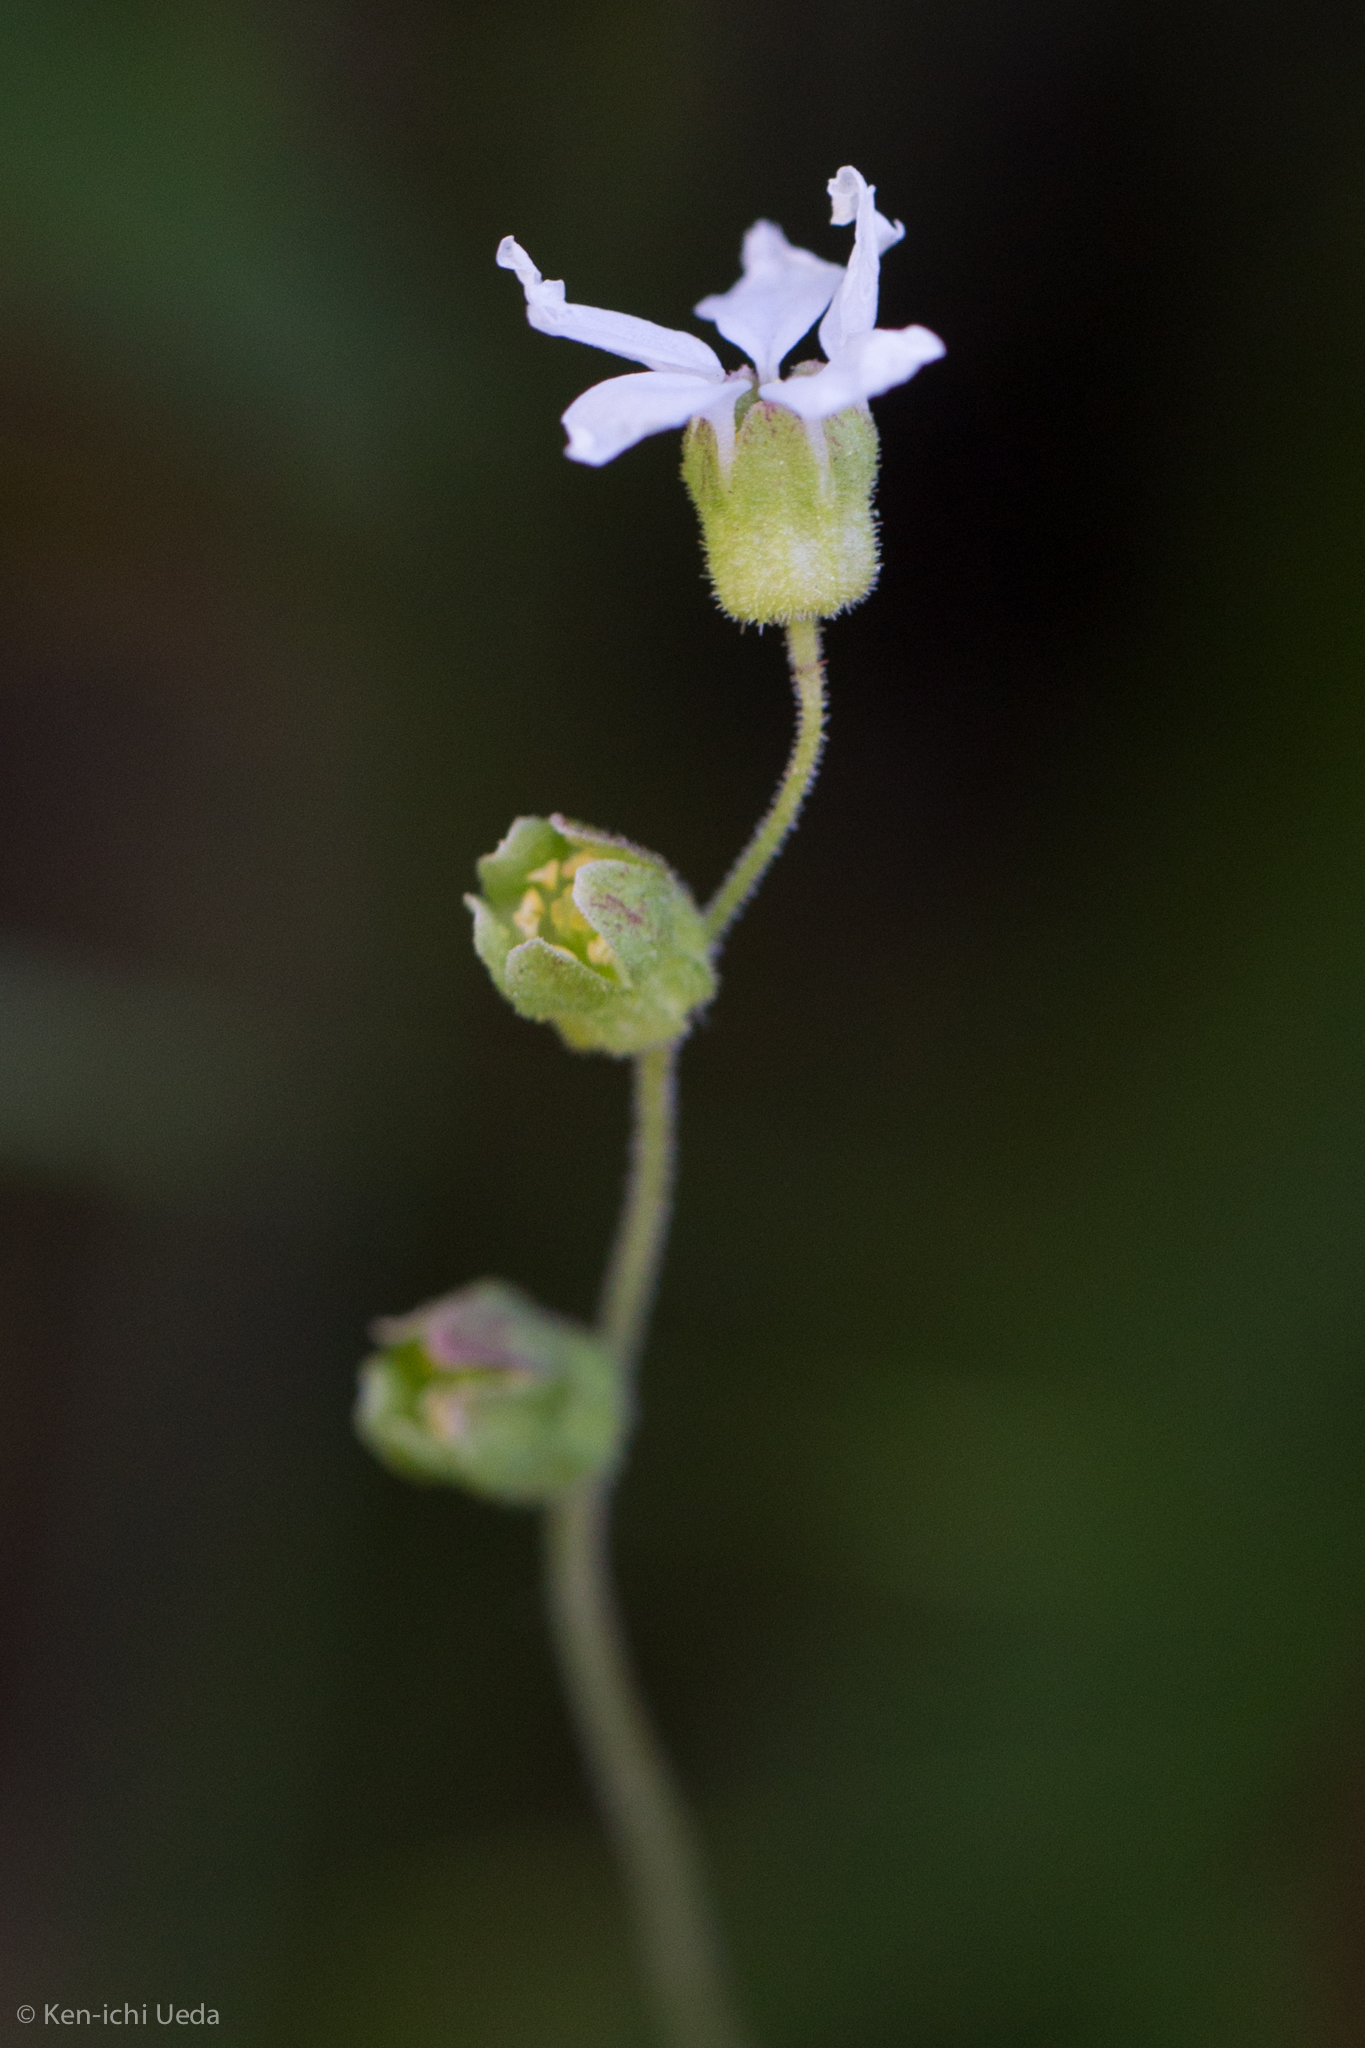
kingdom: Plantae
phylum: Tracheophyta
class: Magnoliopsida
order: Saxifragales
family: Saxifragaceae
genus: Lithophragma
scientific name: Lithophragma heterophyllum
